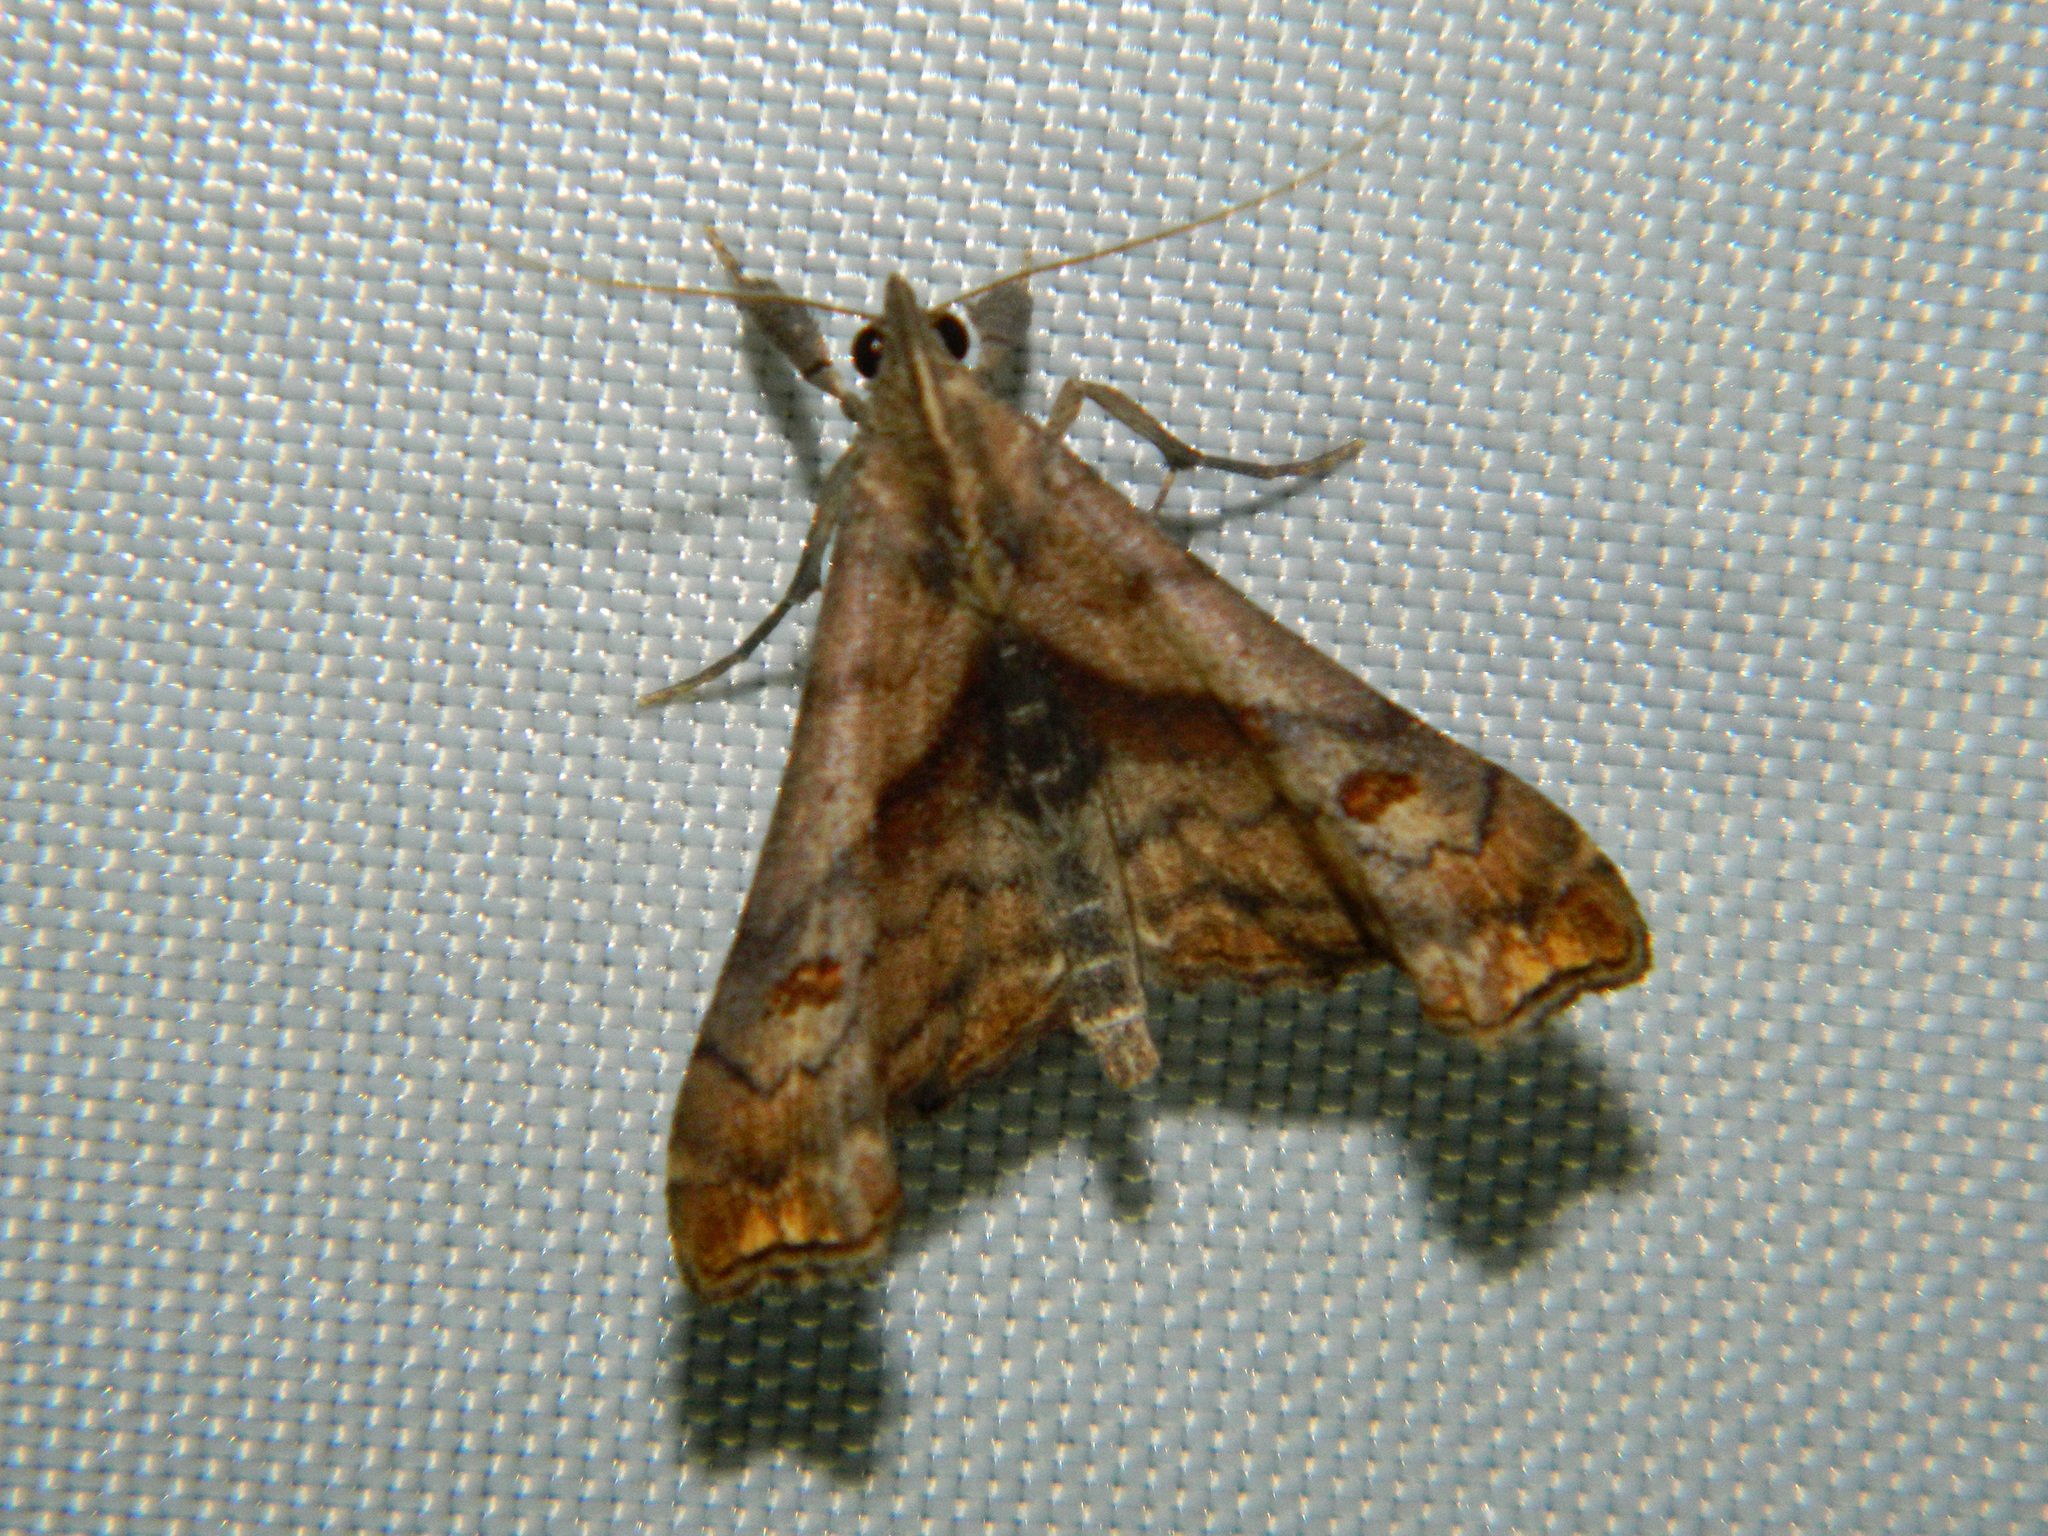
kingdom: Animalia
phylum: Arthropoda
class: Insecta
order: Lepidoptera
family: Erebidae
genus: Palthis
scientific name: Palthis angulalis
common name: Dark-spotted palthis moth
